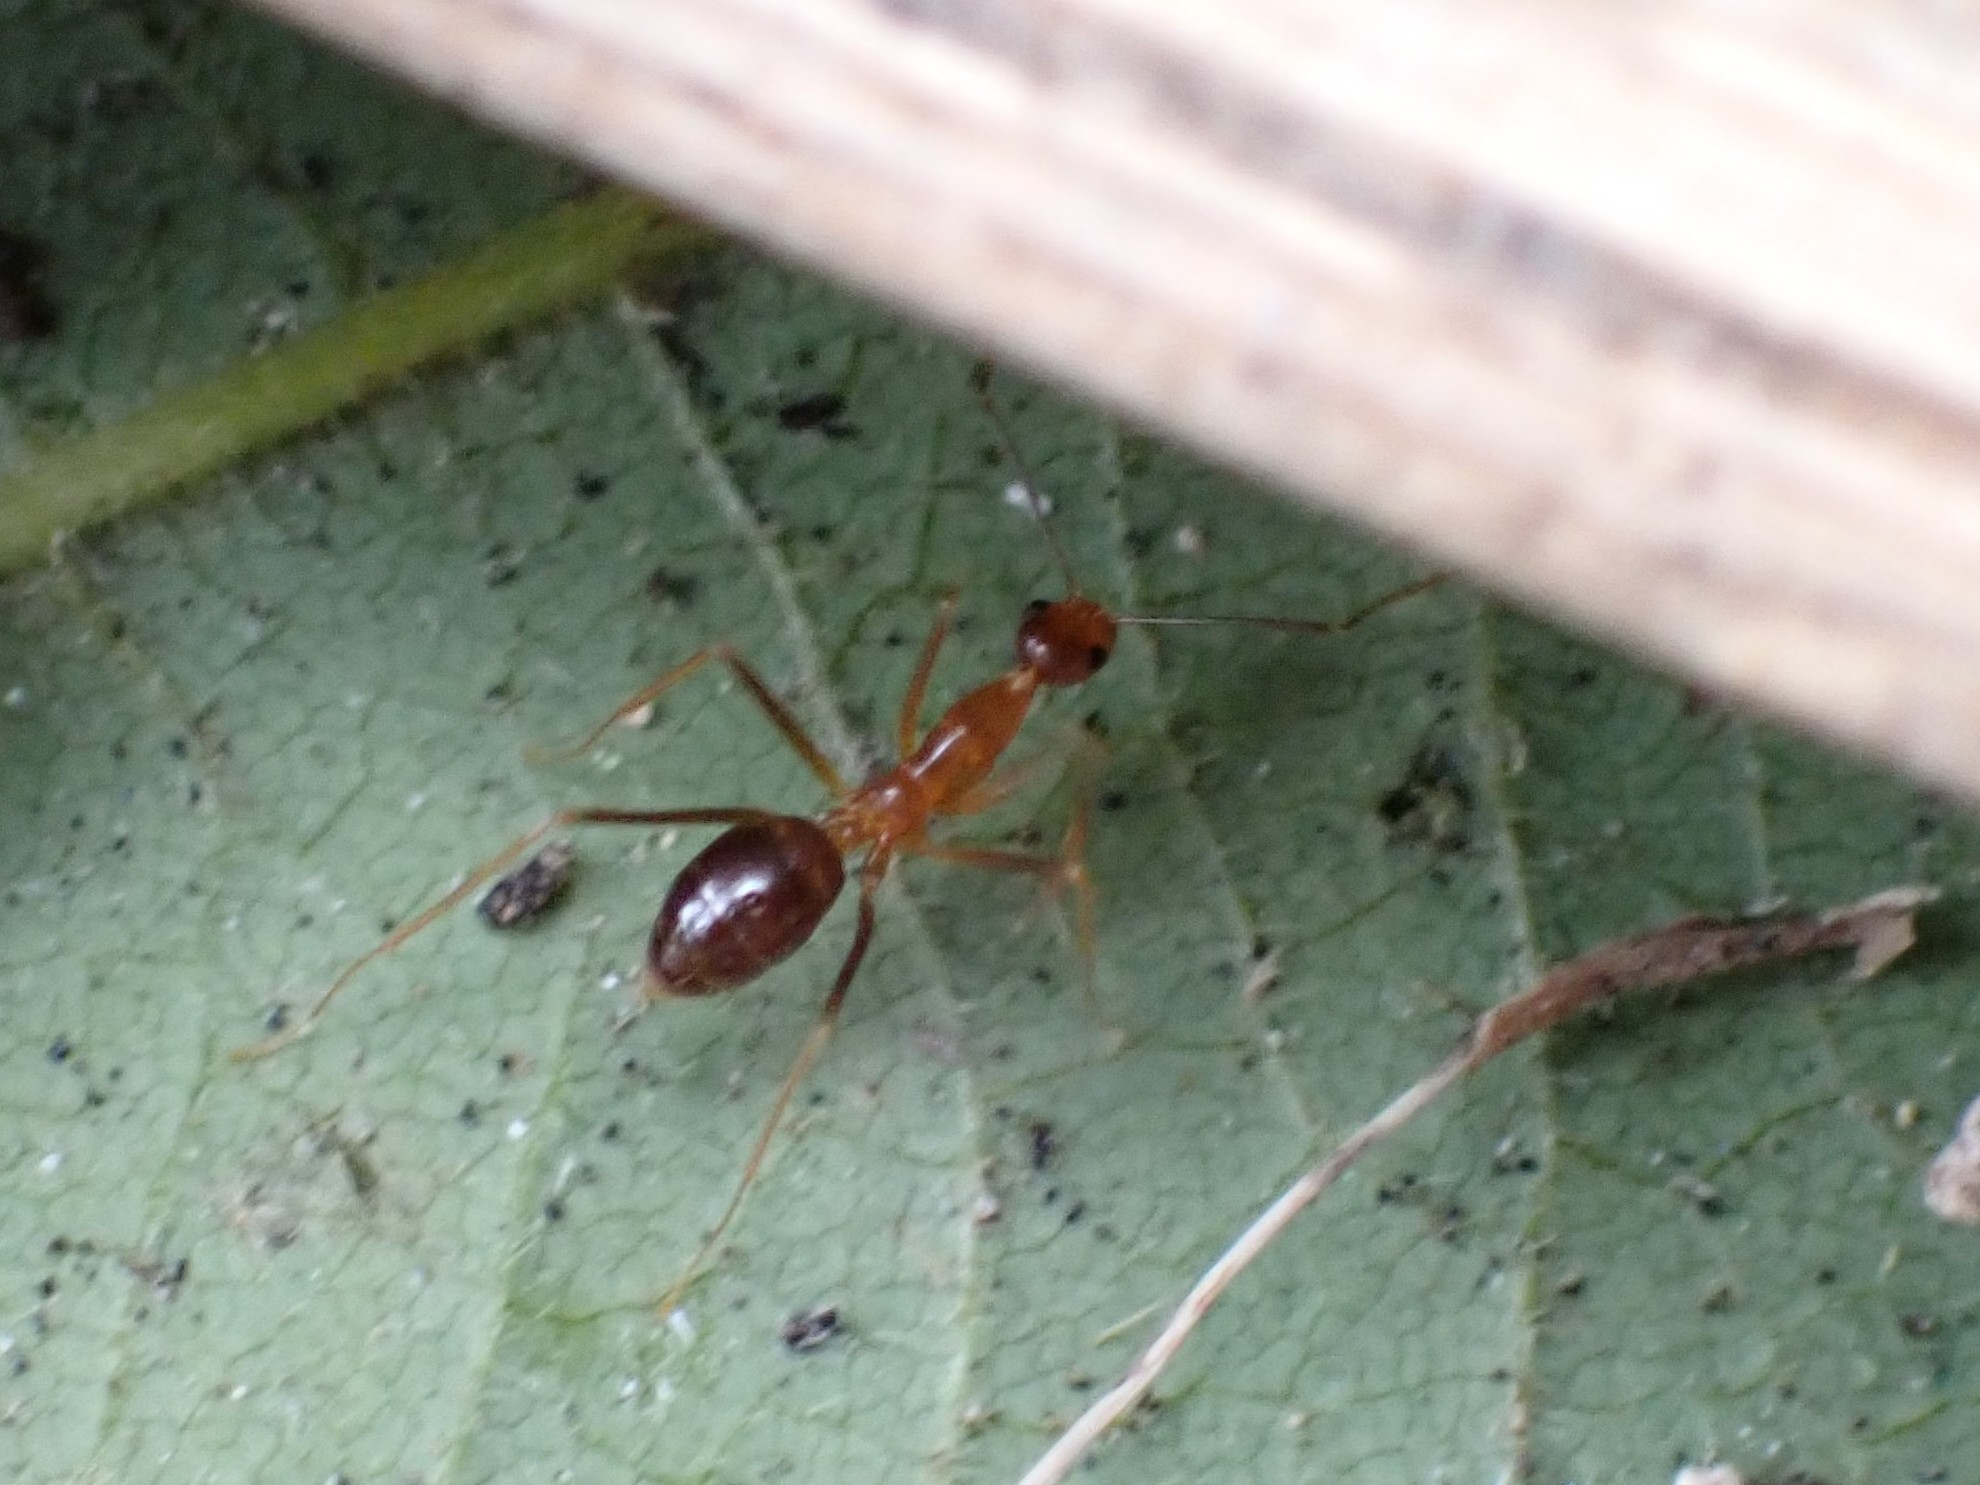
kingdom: Animalia
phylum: Arthropoda
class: Insecta
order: Hymenoptera
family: Formicidae
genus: Anoplolepis
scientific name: Anoplolepis gracilipes
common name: Ant
